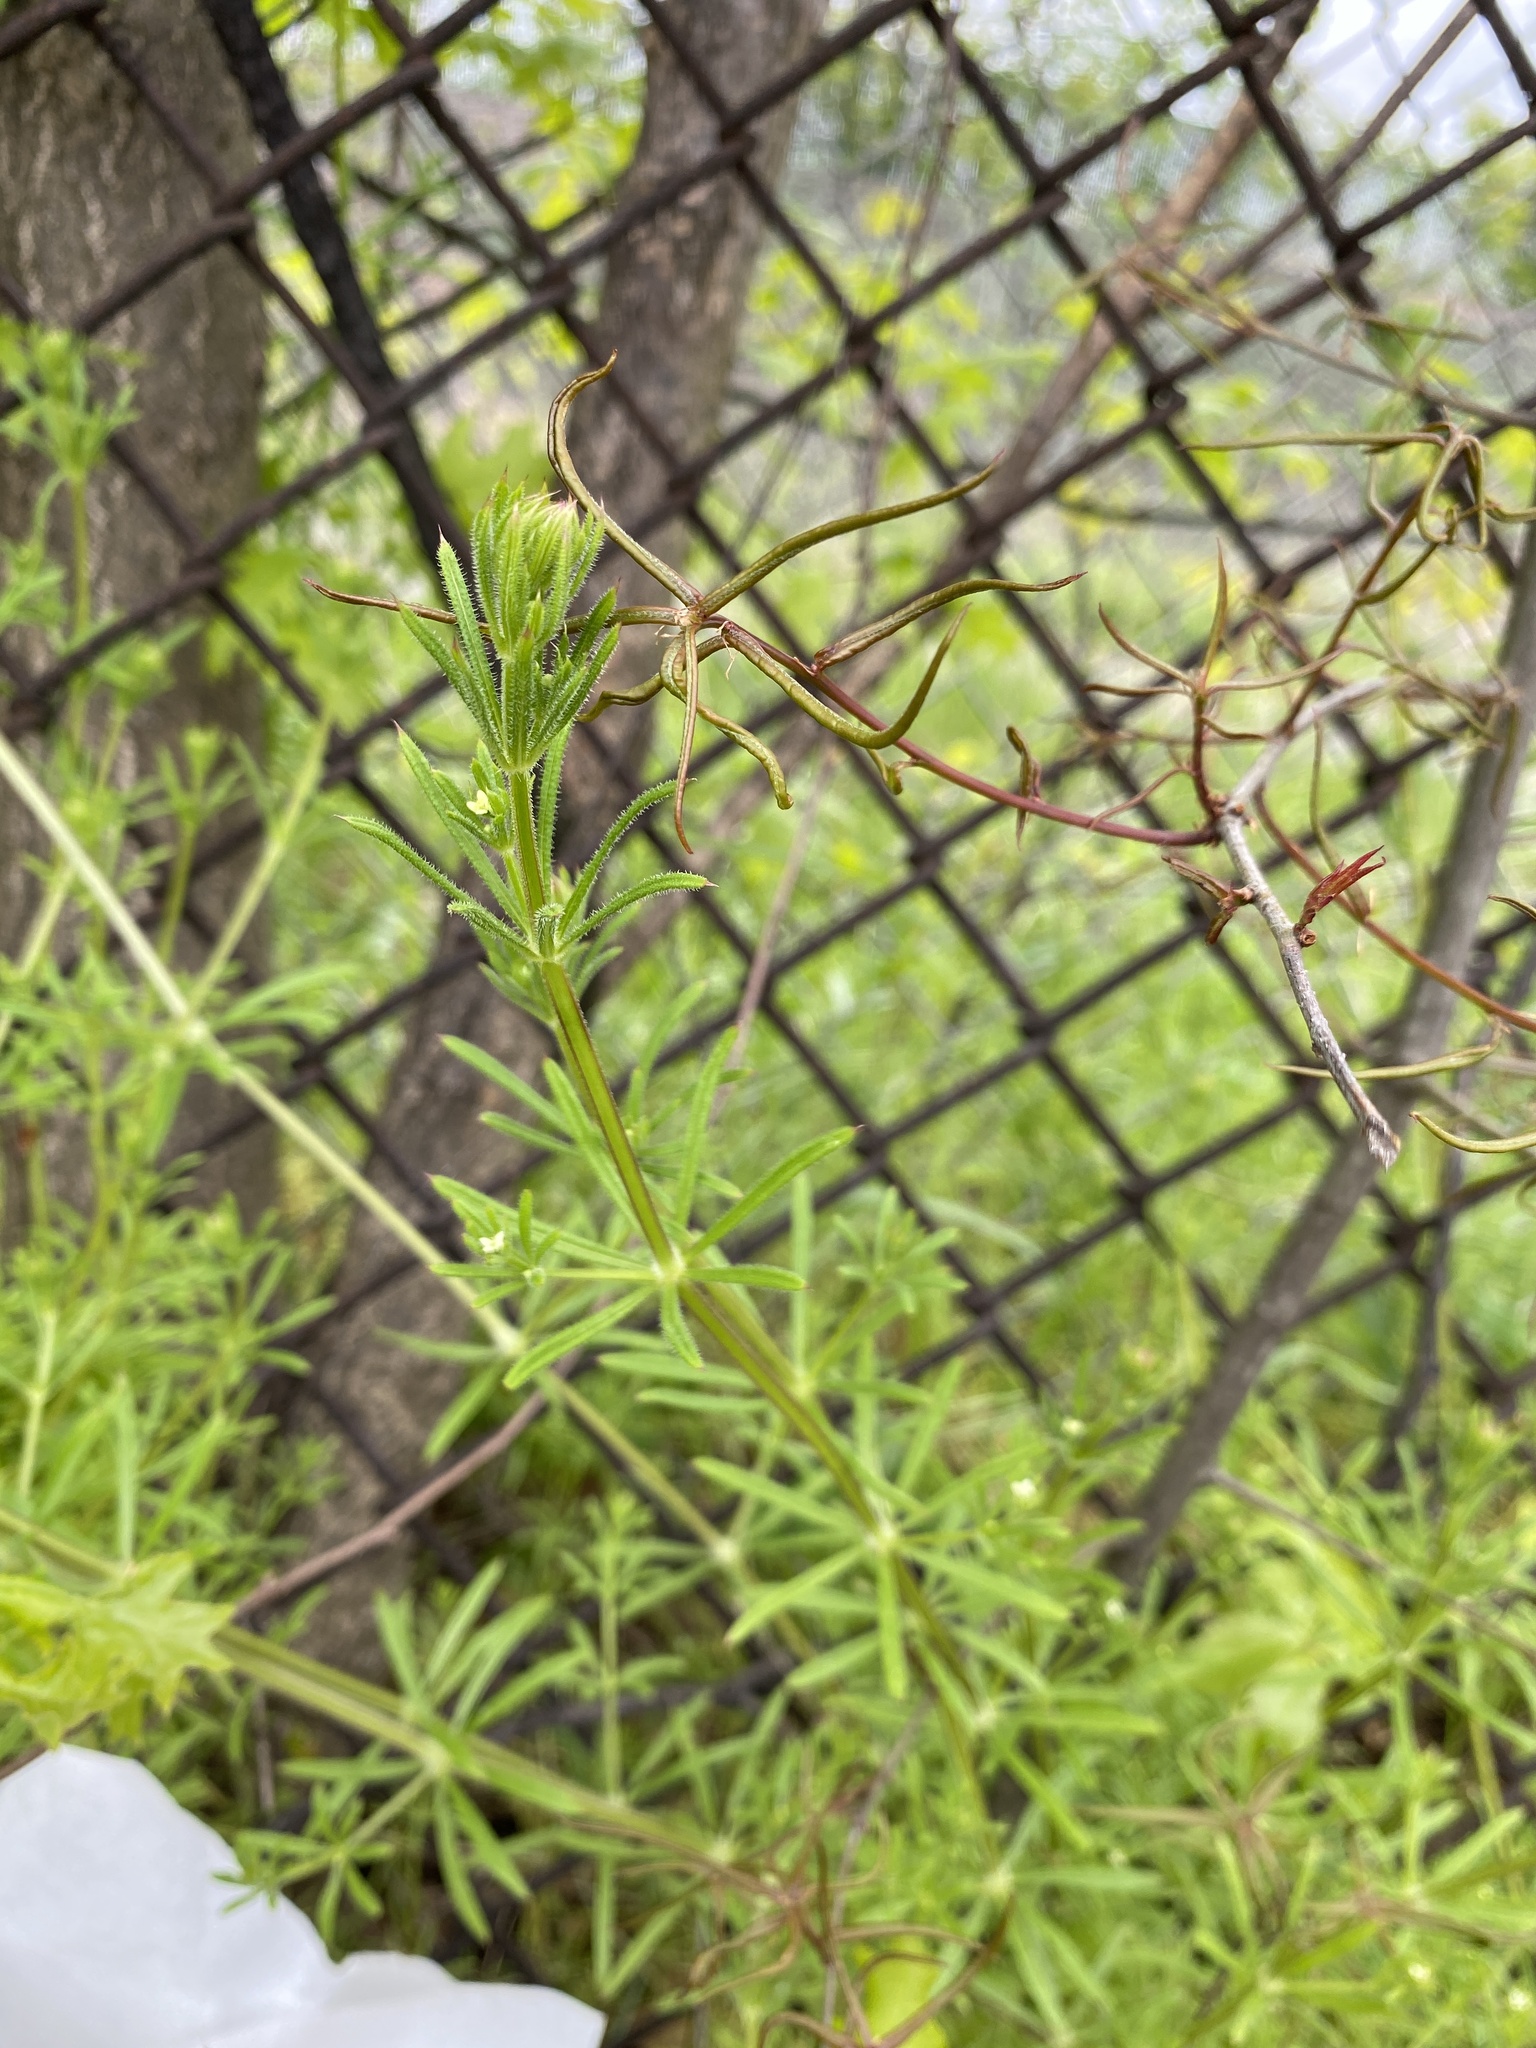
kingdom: Plantae
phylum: Tracheophyta
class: Magnoliopsida
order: Gentianales
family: Rubiaceae
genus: Galium
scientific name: Galium aparine
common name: Cleavers
